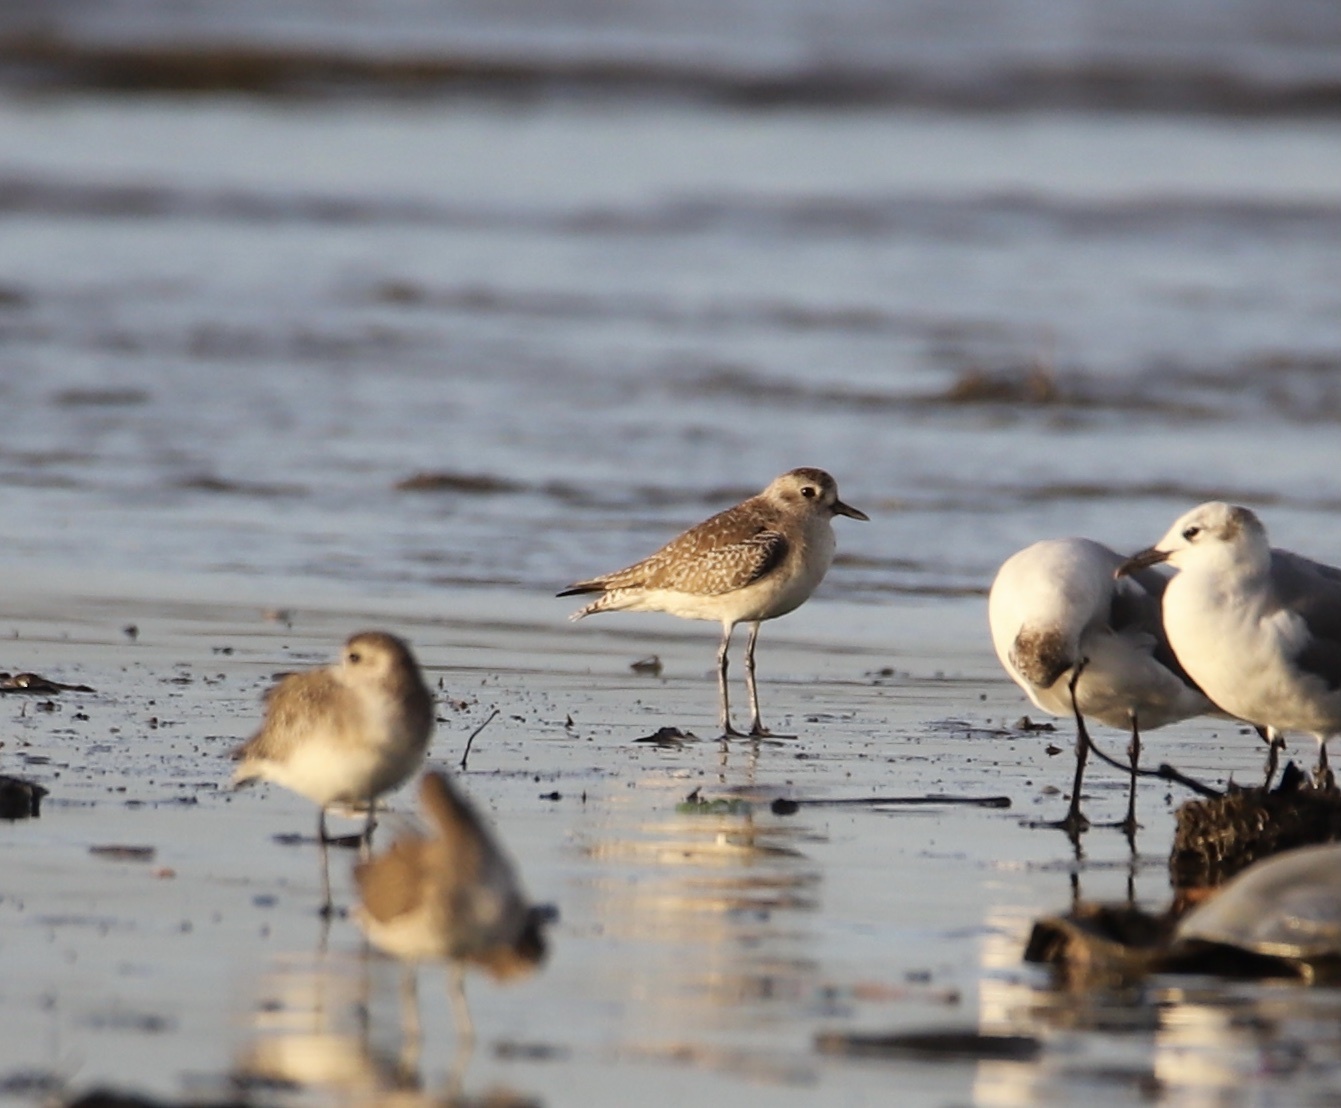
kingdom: Animalia
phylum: Chordata
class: Aves
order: Charadriiformes
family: Charadriidae
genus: Pluvialis
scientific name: Pluvialis squatarola
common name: Grey plover
